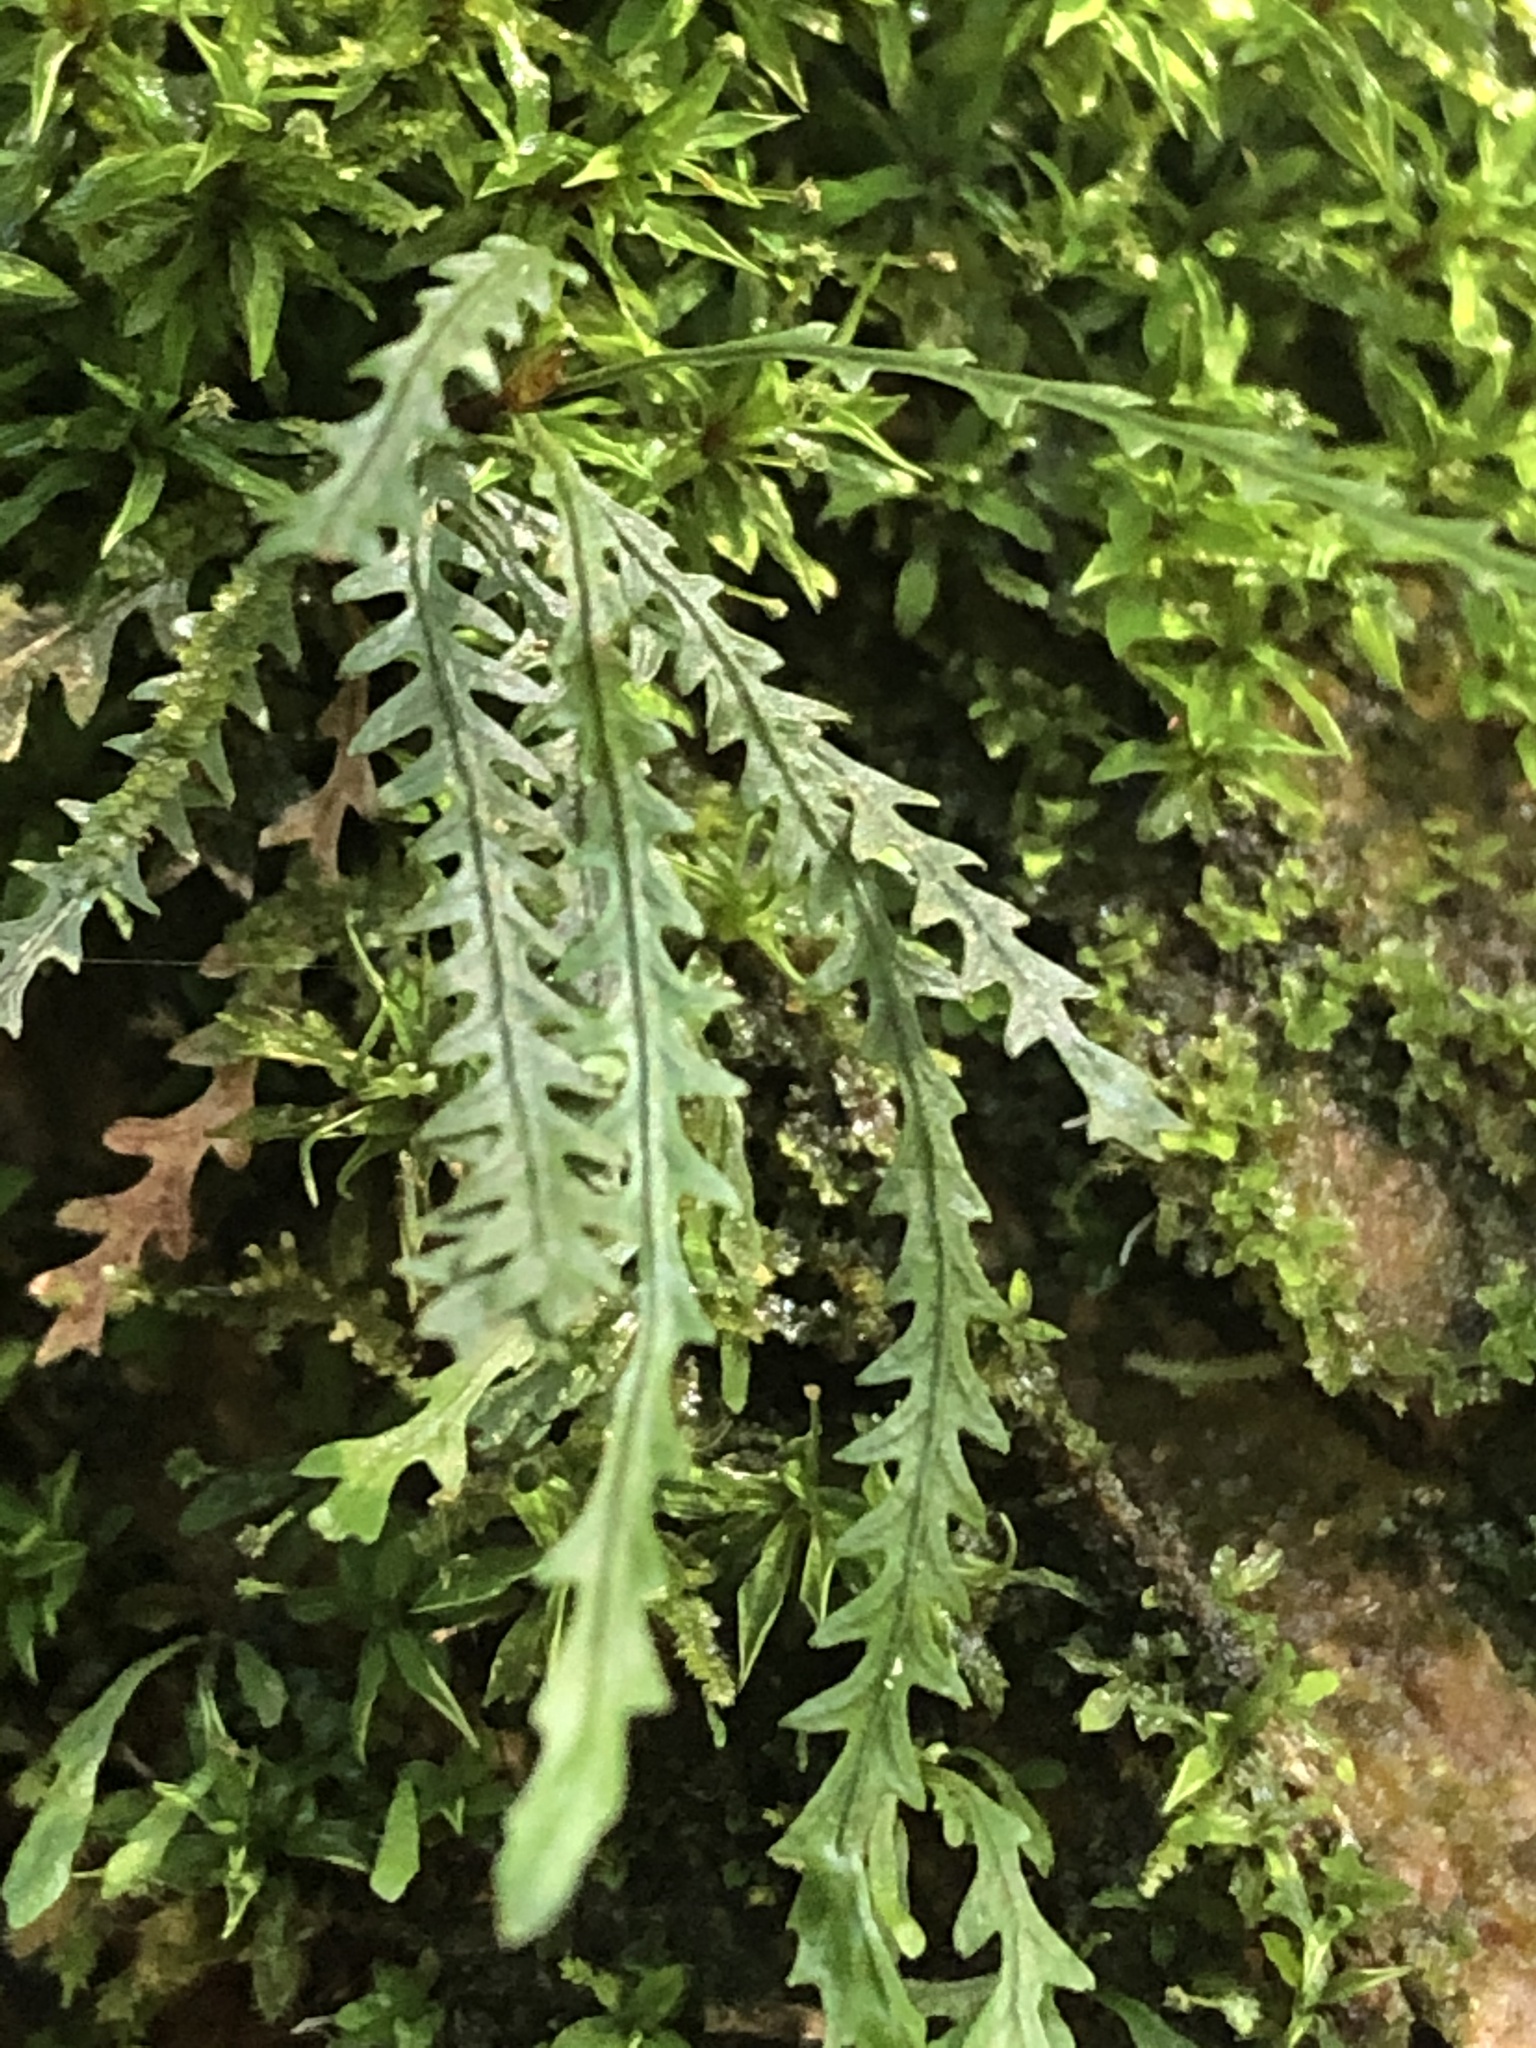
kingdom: Plantae
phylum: Tracheophyta
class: Polypodiopsida
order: Polypodiales
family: Polypodiaceae
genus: Cochlidium
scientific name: Cochlidium serrulatum
